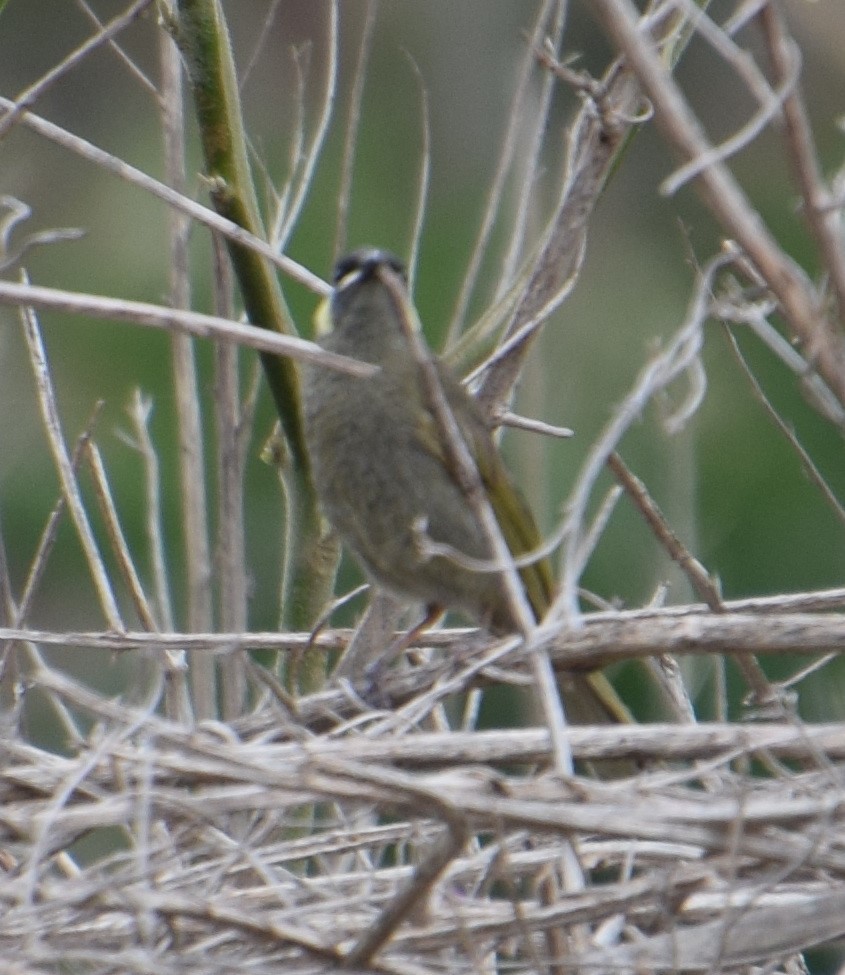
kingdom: Animalia
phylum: Chordata
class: Aves
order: Passeriformes
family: Meliphagidae
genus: Meliphaga
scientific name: Meliphaga lewinii
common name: Lewin's honeyeater
